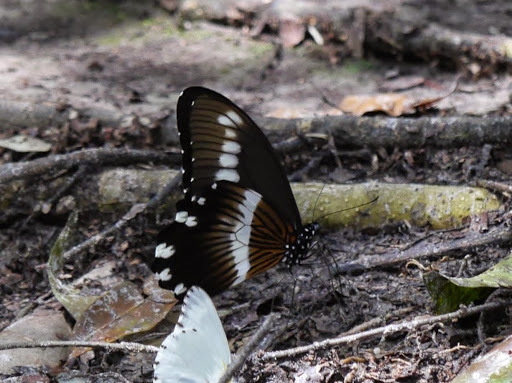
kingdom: Animalia
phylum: Arthropoda
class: Insecta
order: Lepidoptera
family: Papilionidae
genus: Papilio
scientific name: Papilio gallienus
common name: Narrow-banded swallowtail
